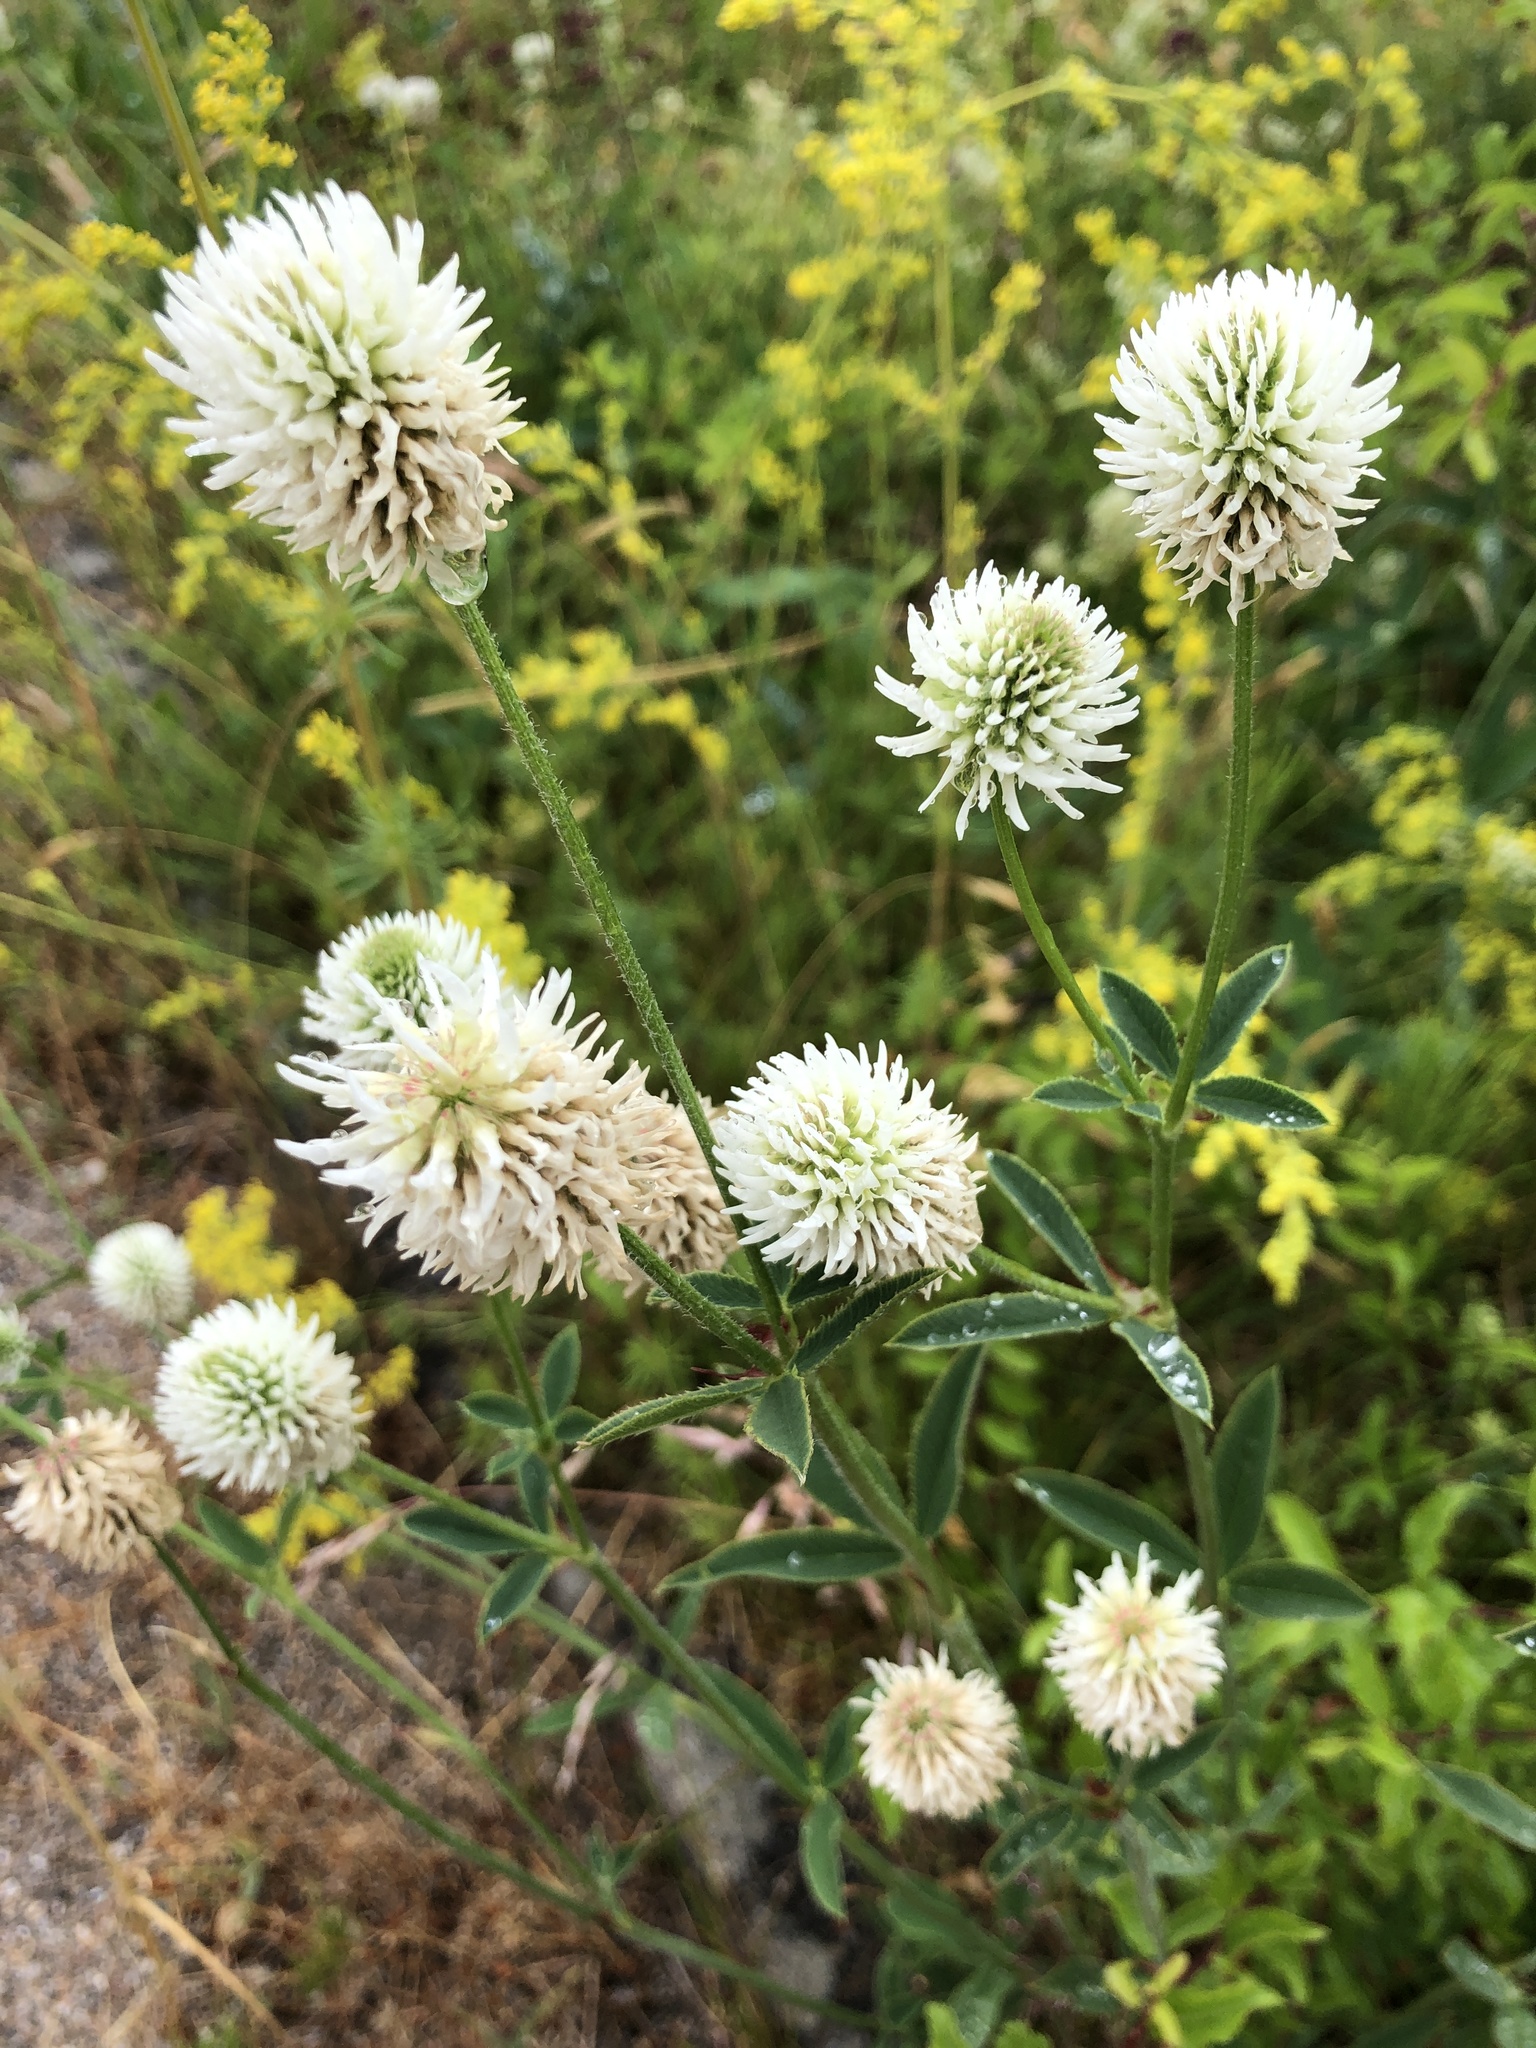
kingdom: Plantae
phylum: Tracheophyta
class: Magnoliopsida
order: Fabales
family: Fabaceae
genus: Trifolium
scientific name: Trifolium montanum
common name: Mountain clover
